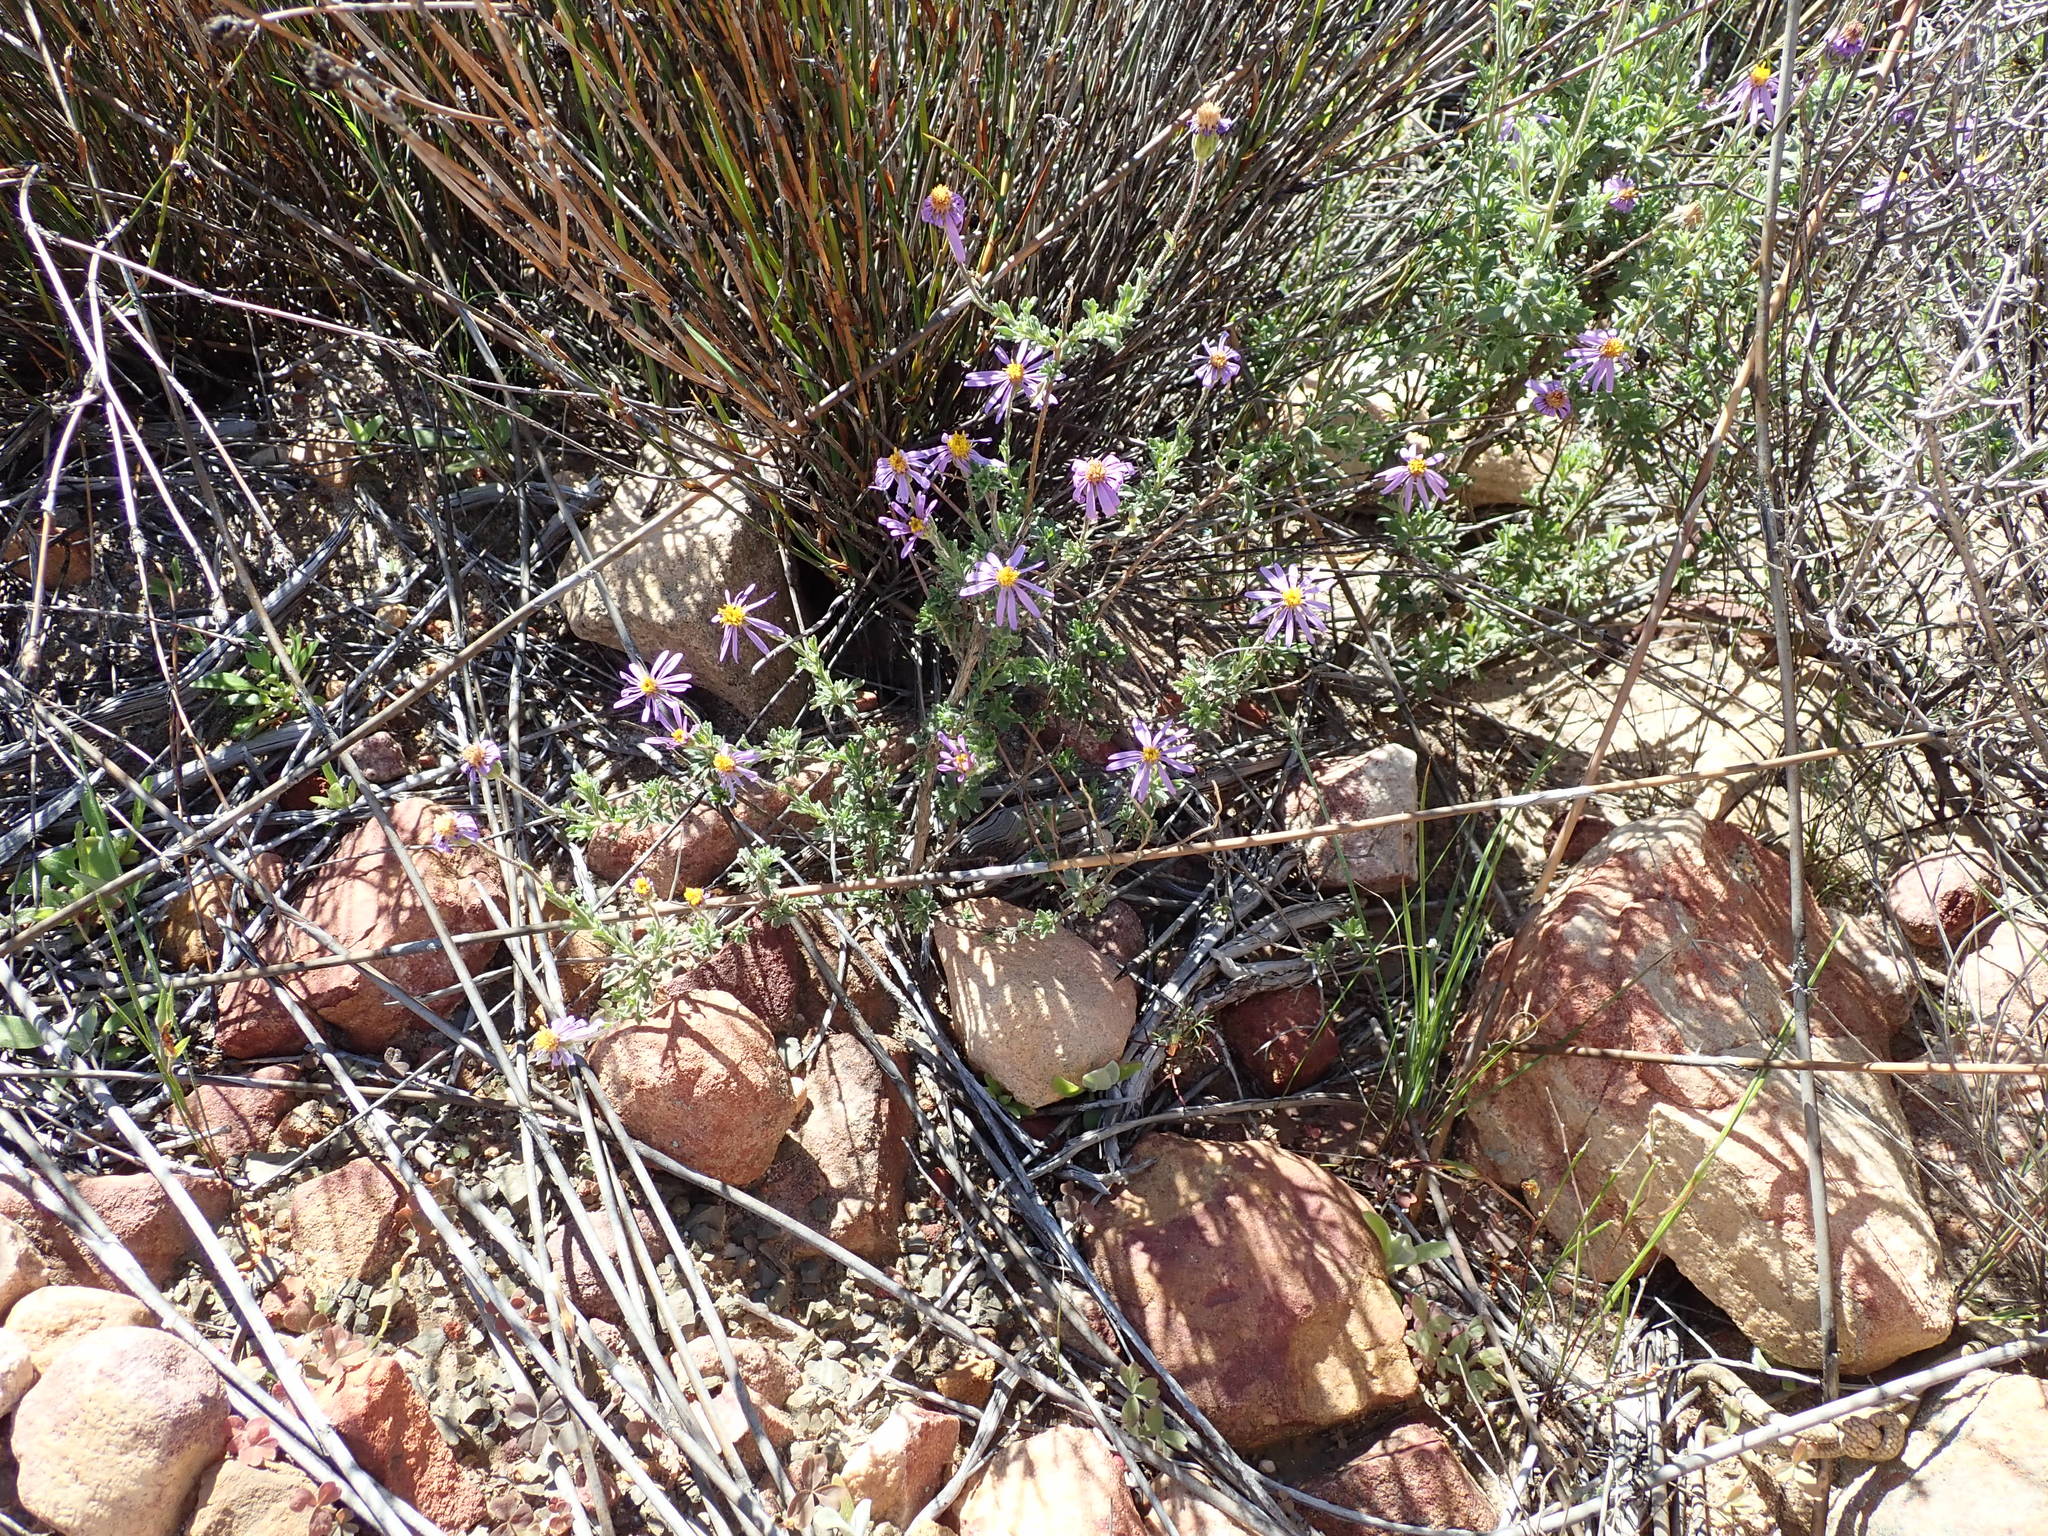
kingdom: Plantae
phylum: Tracheophyta
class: Magnoliopsida
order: Asterales
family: Asteraceae
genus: Felicia
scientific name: Felicia brevifolia
